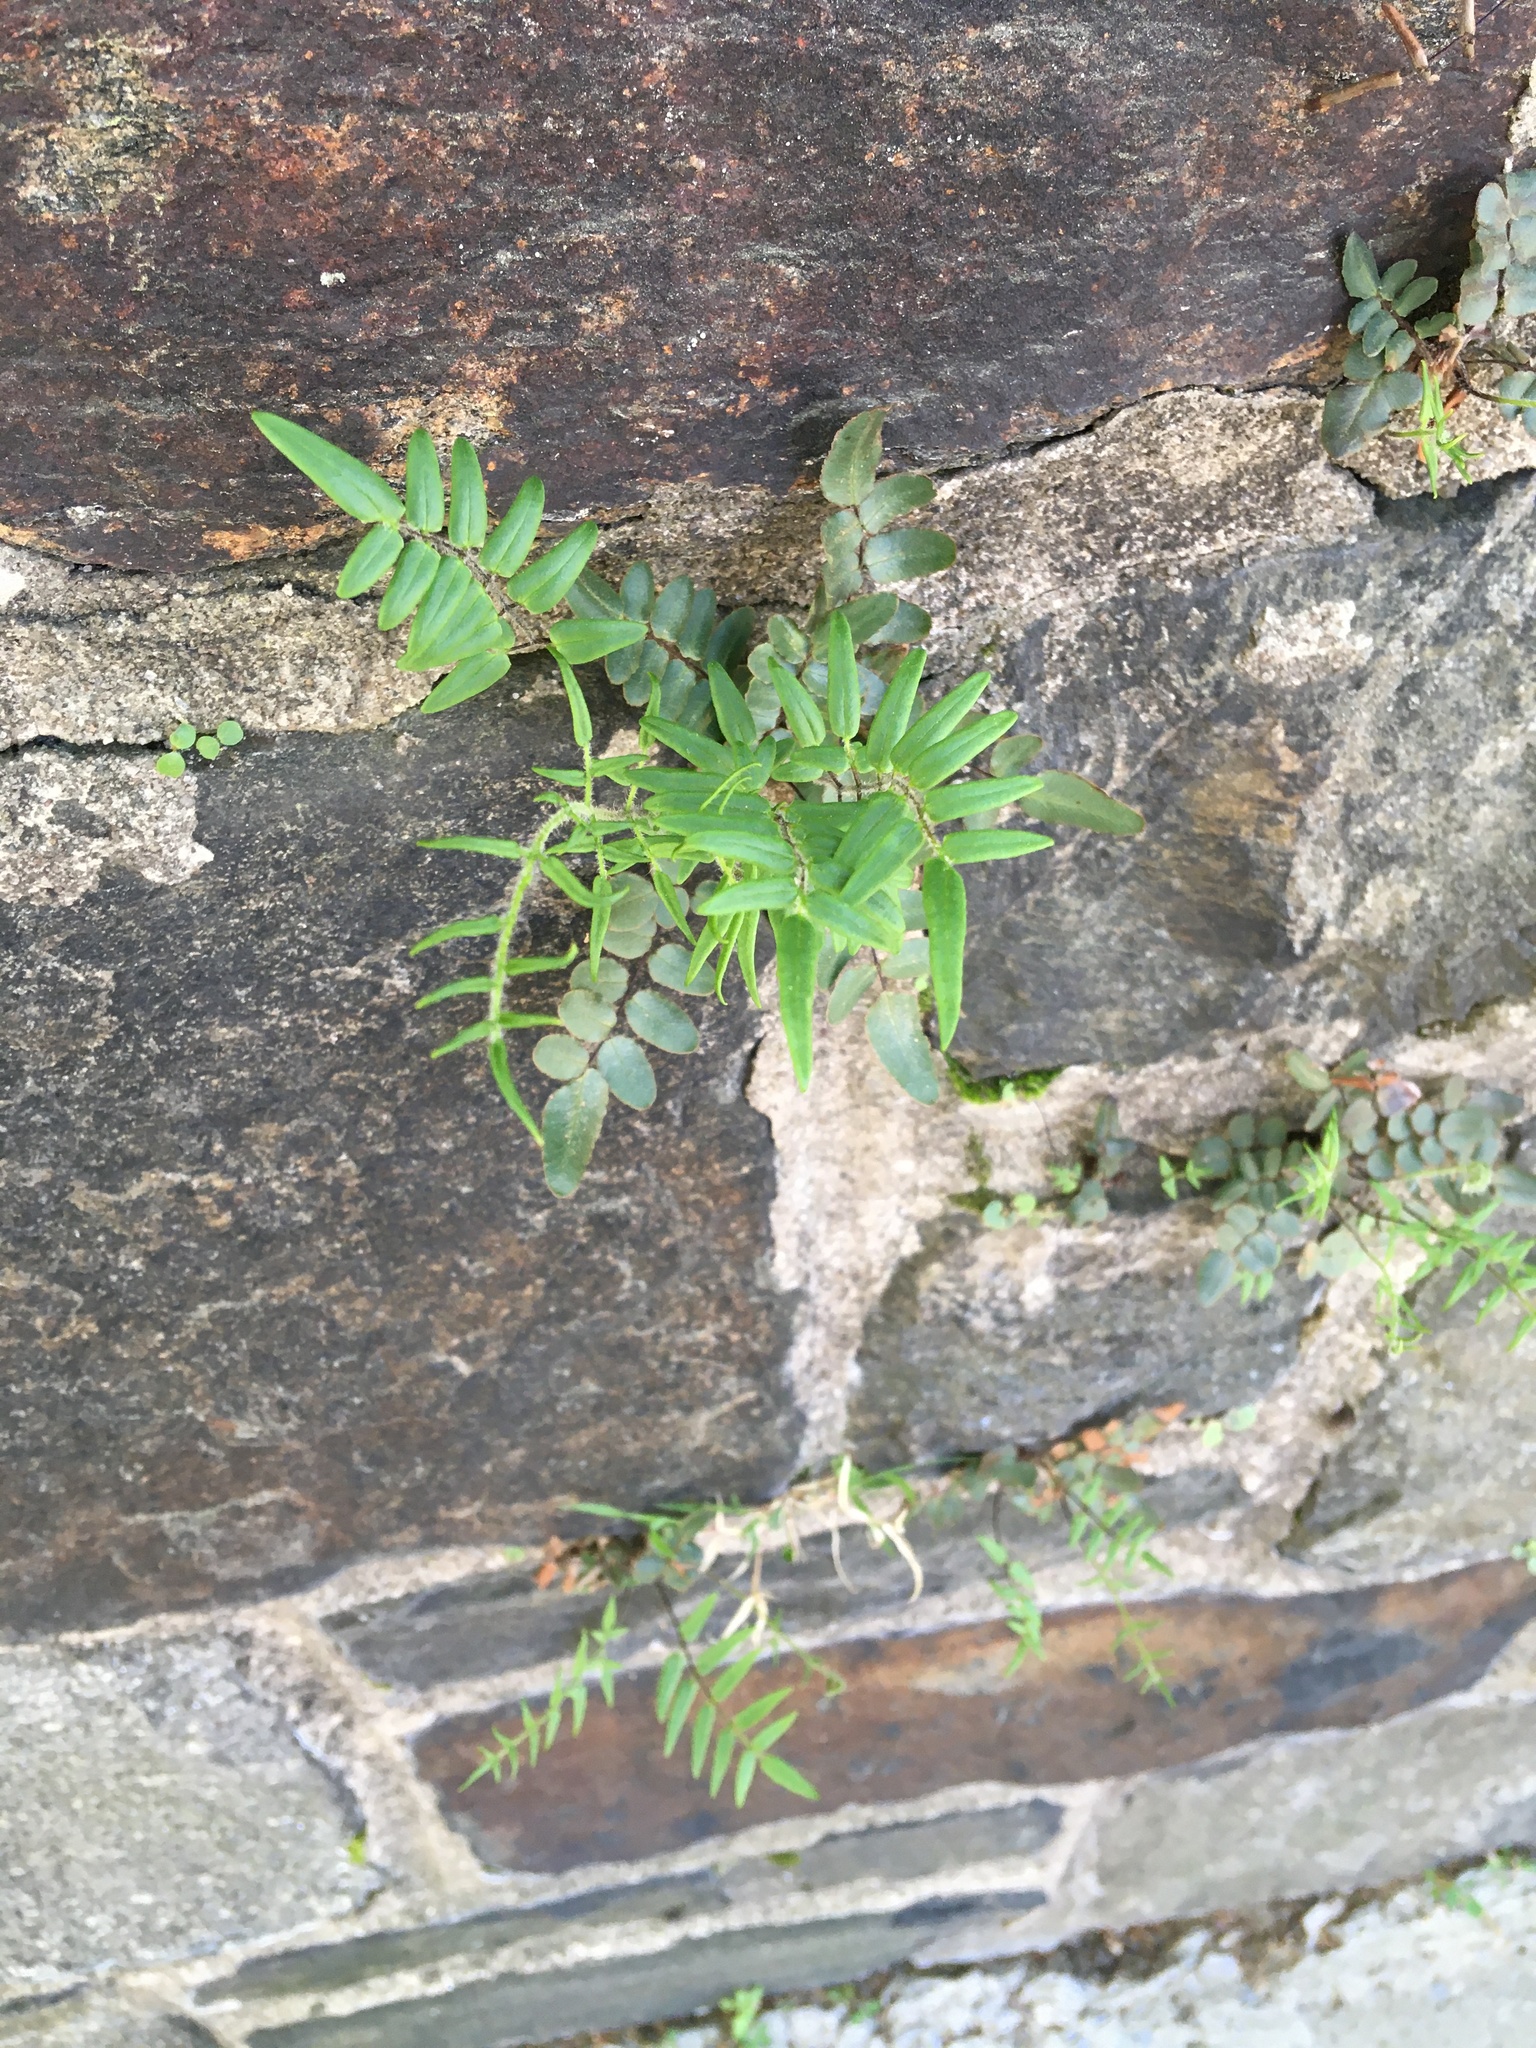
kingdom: Plantae
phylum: Tracheophyta
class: Polypodiopsida
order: Polypodiales
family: Pteridaceae
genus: Pellaea
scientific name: Pellaea atropurpurea
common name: Hairy cliffbrake
